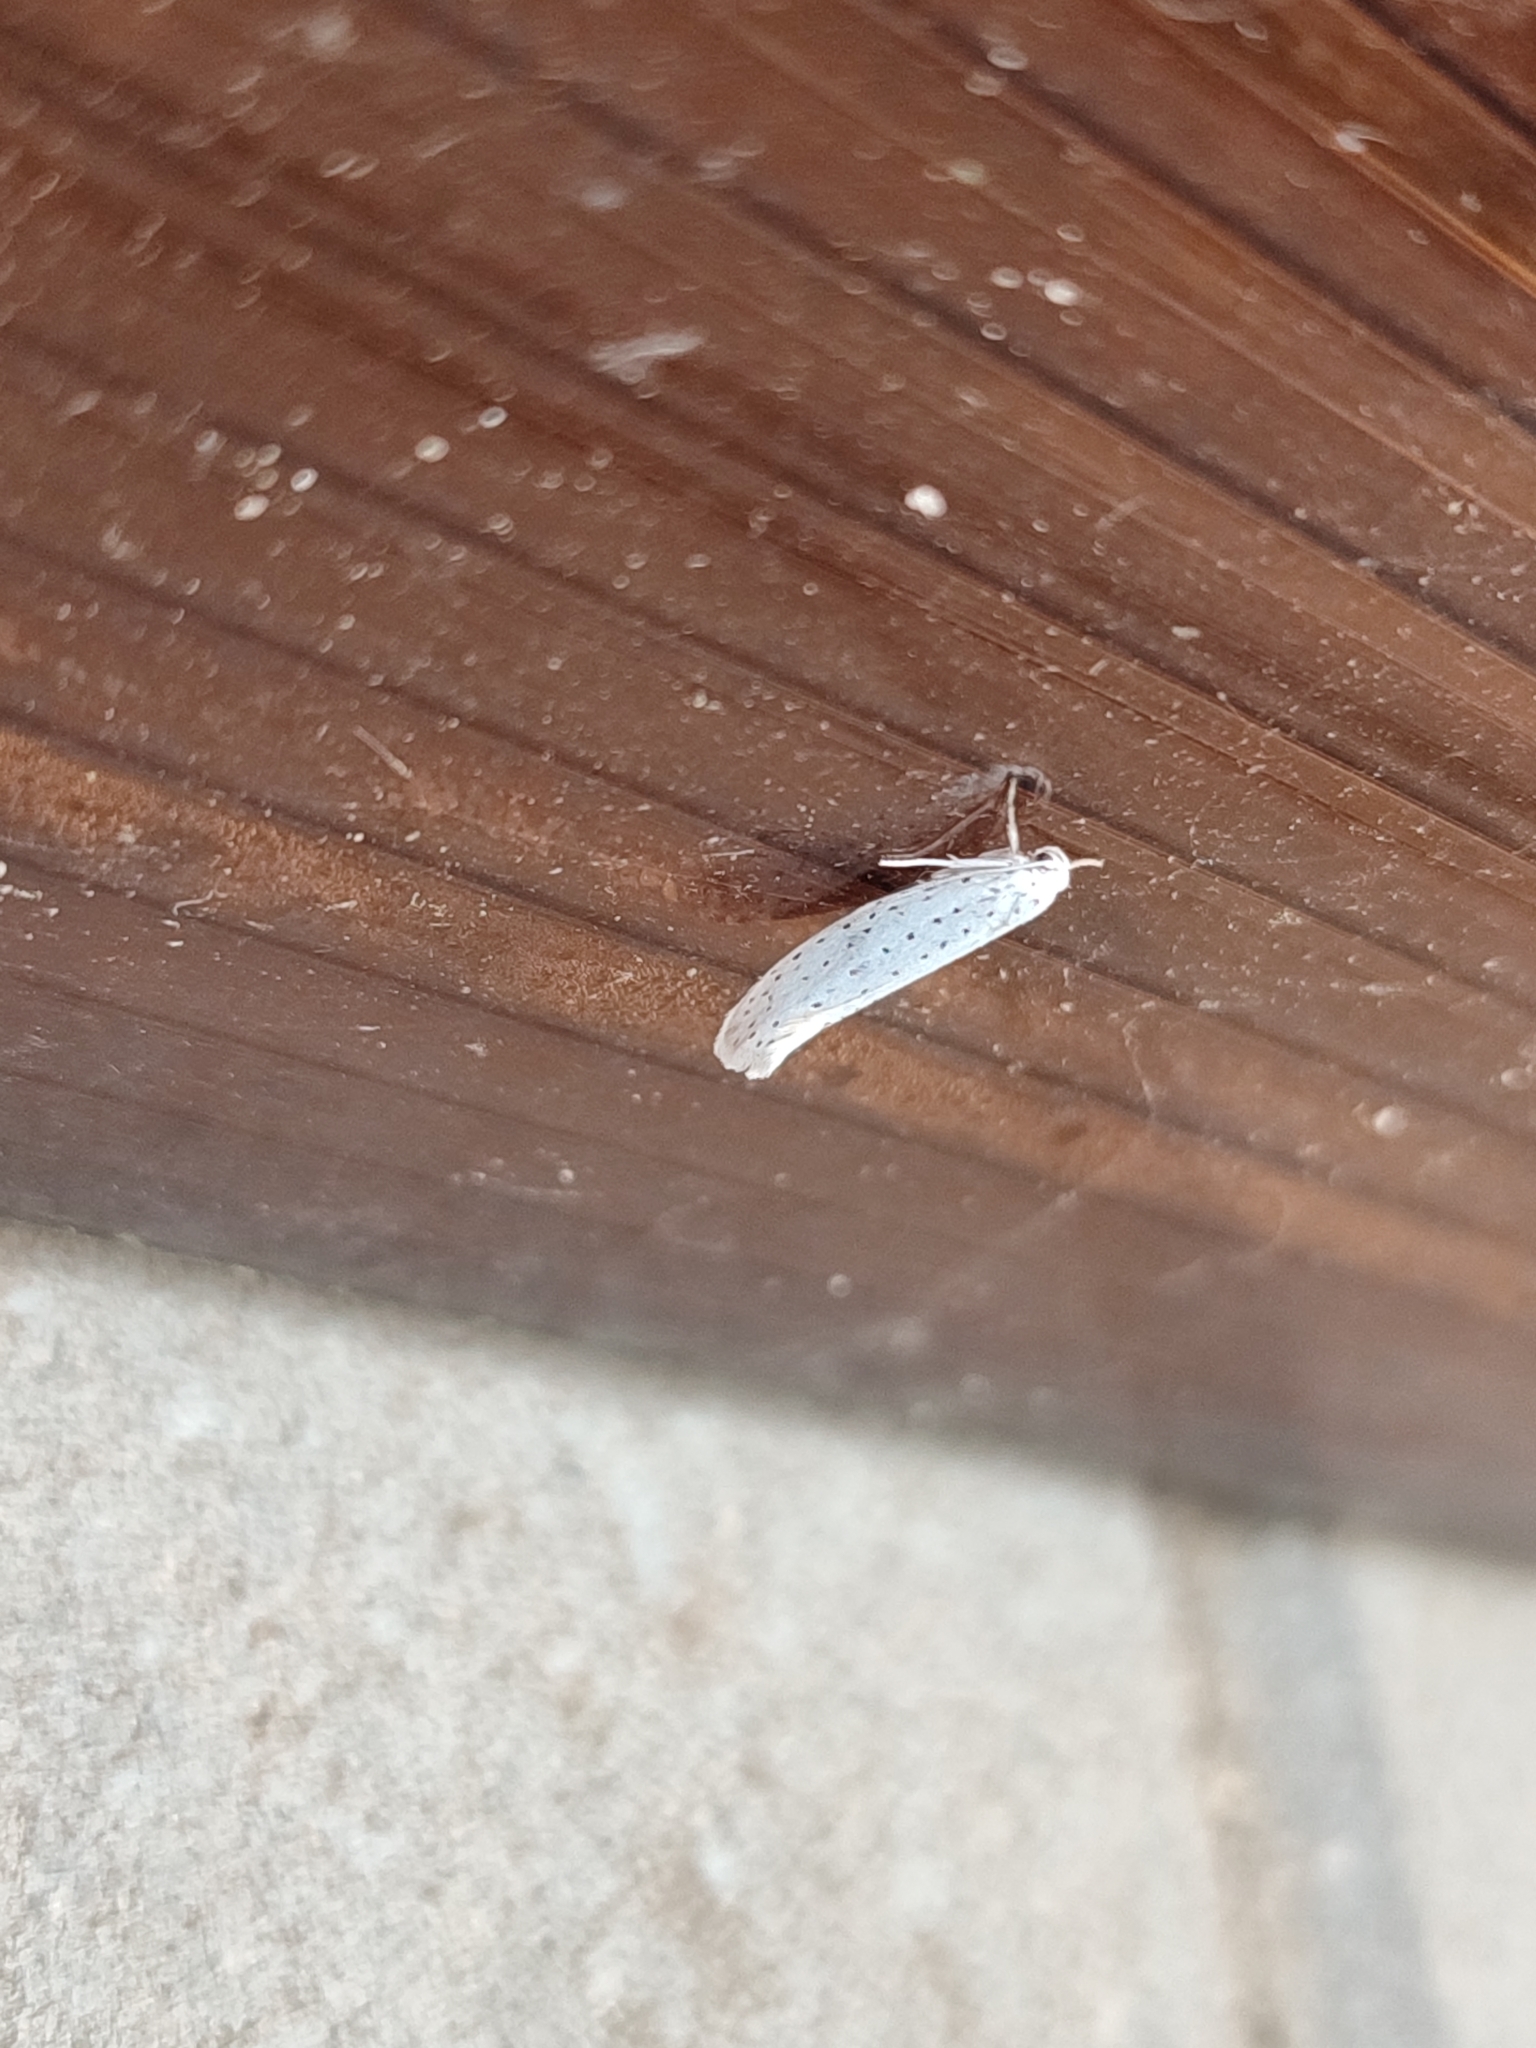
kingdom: Animalia
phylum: Arthropoda
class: Insecta
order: Lepidoptera
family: Yponomeutidae
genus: Yponomeuta
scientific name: Yponomeuta evonymella
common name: Bird-cherry ermine
